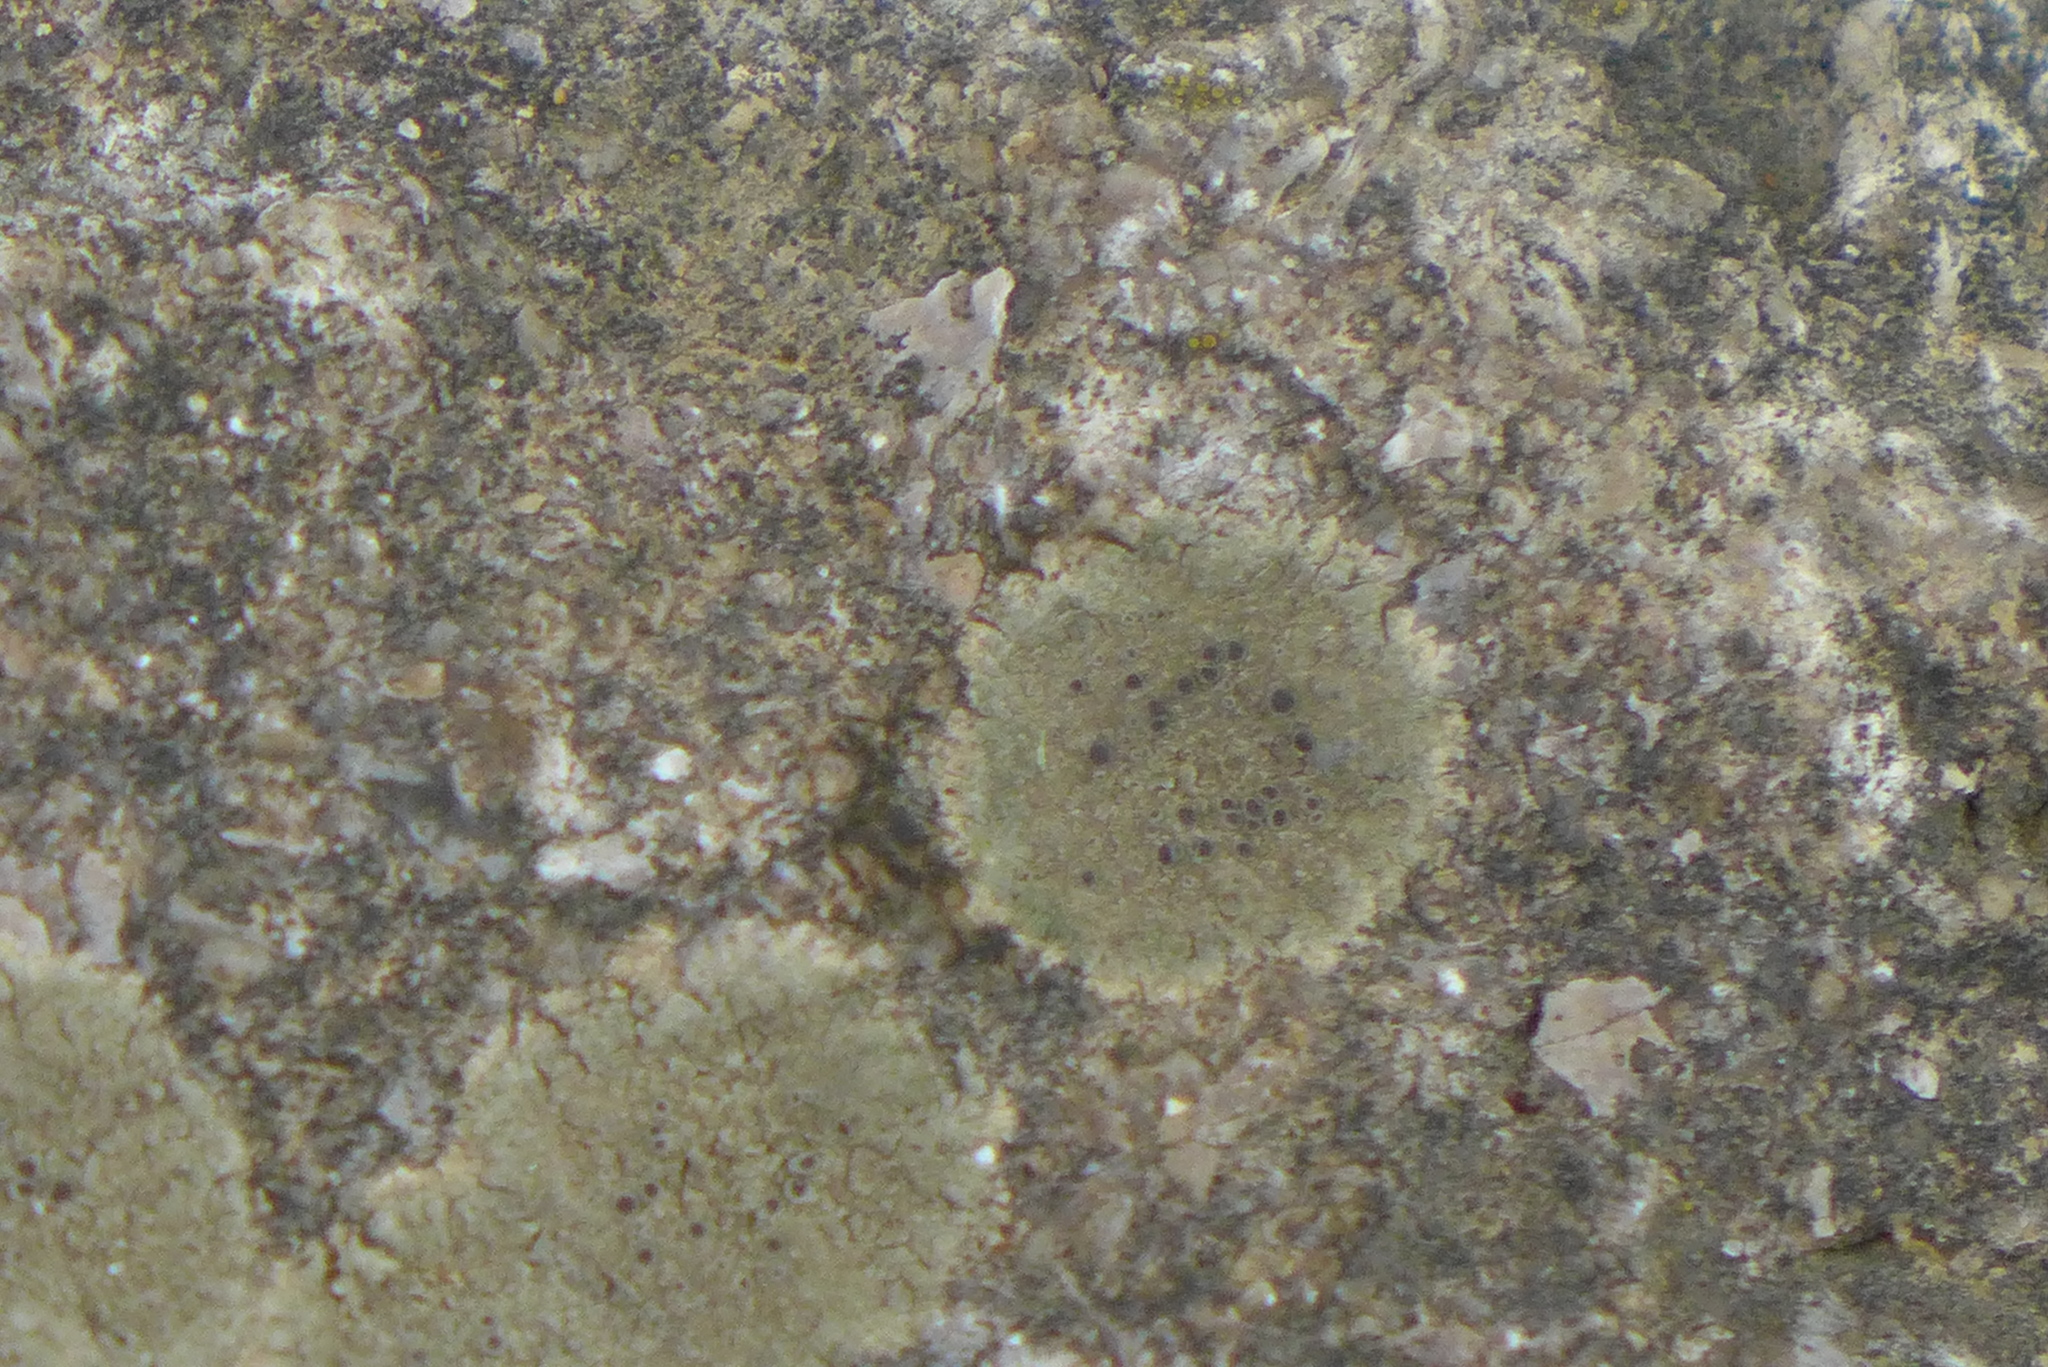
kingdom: Fungi
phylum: Ascomycota
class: Lecanoromycetes
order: Lecanorales
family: Lecanoraceae
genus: Lecanora
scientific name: Lecanora subimmergens
